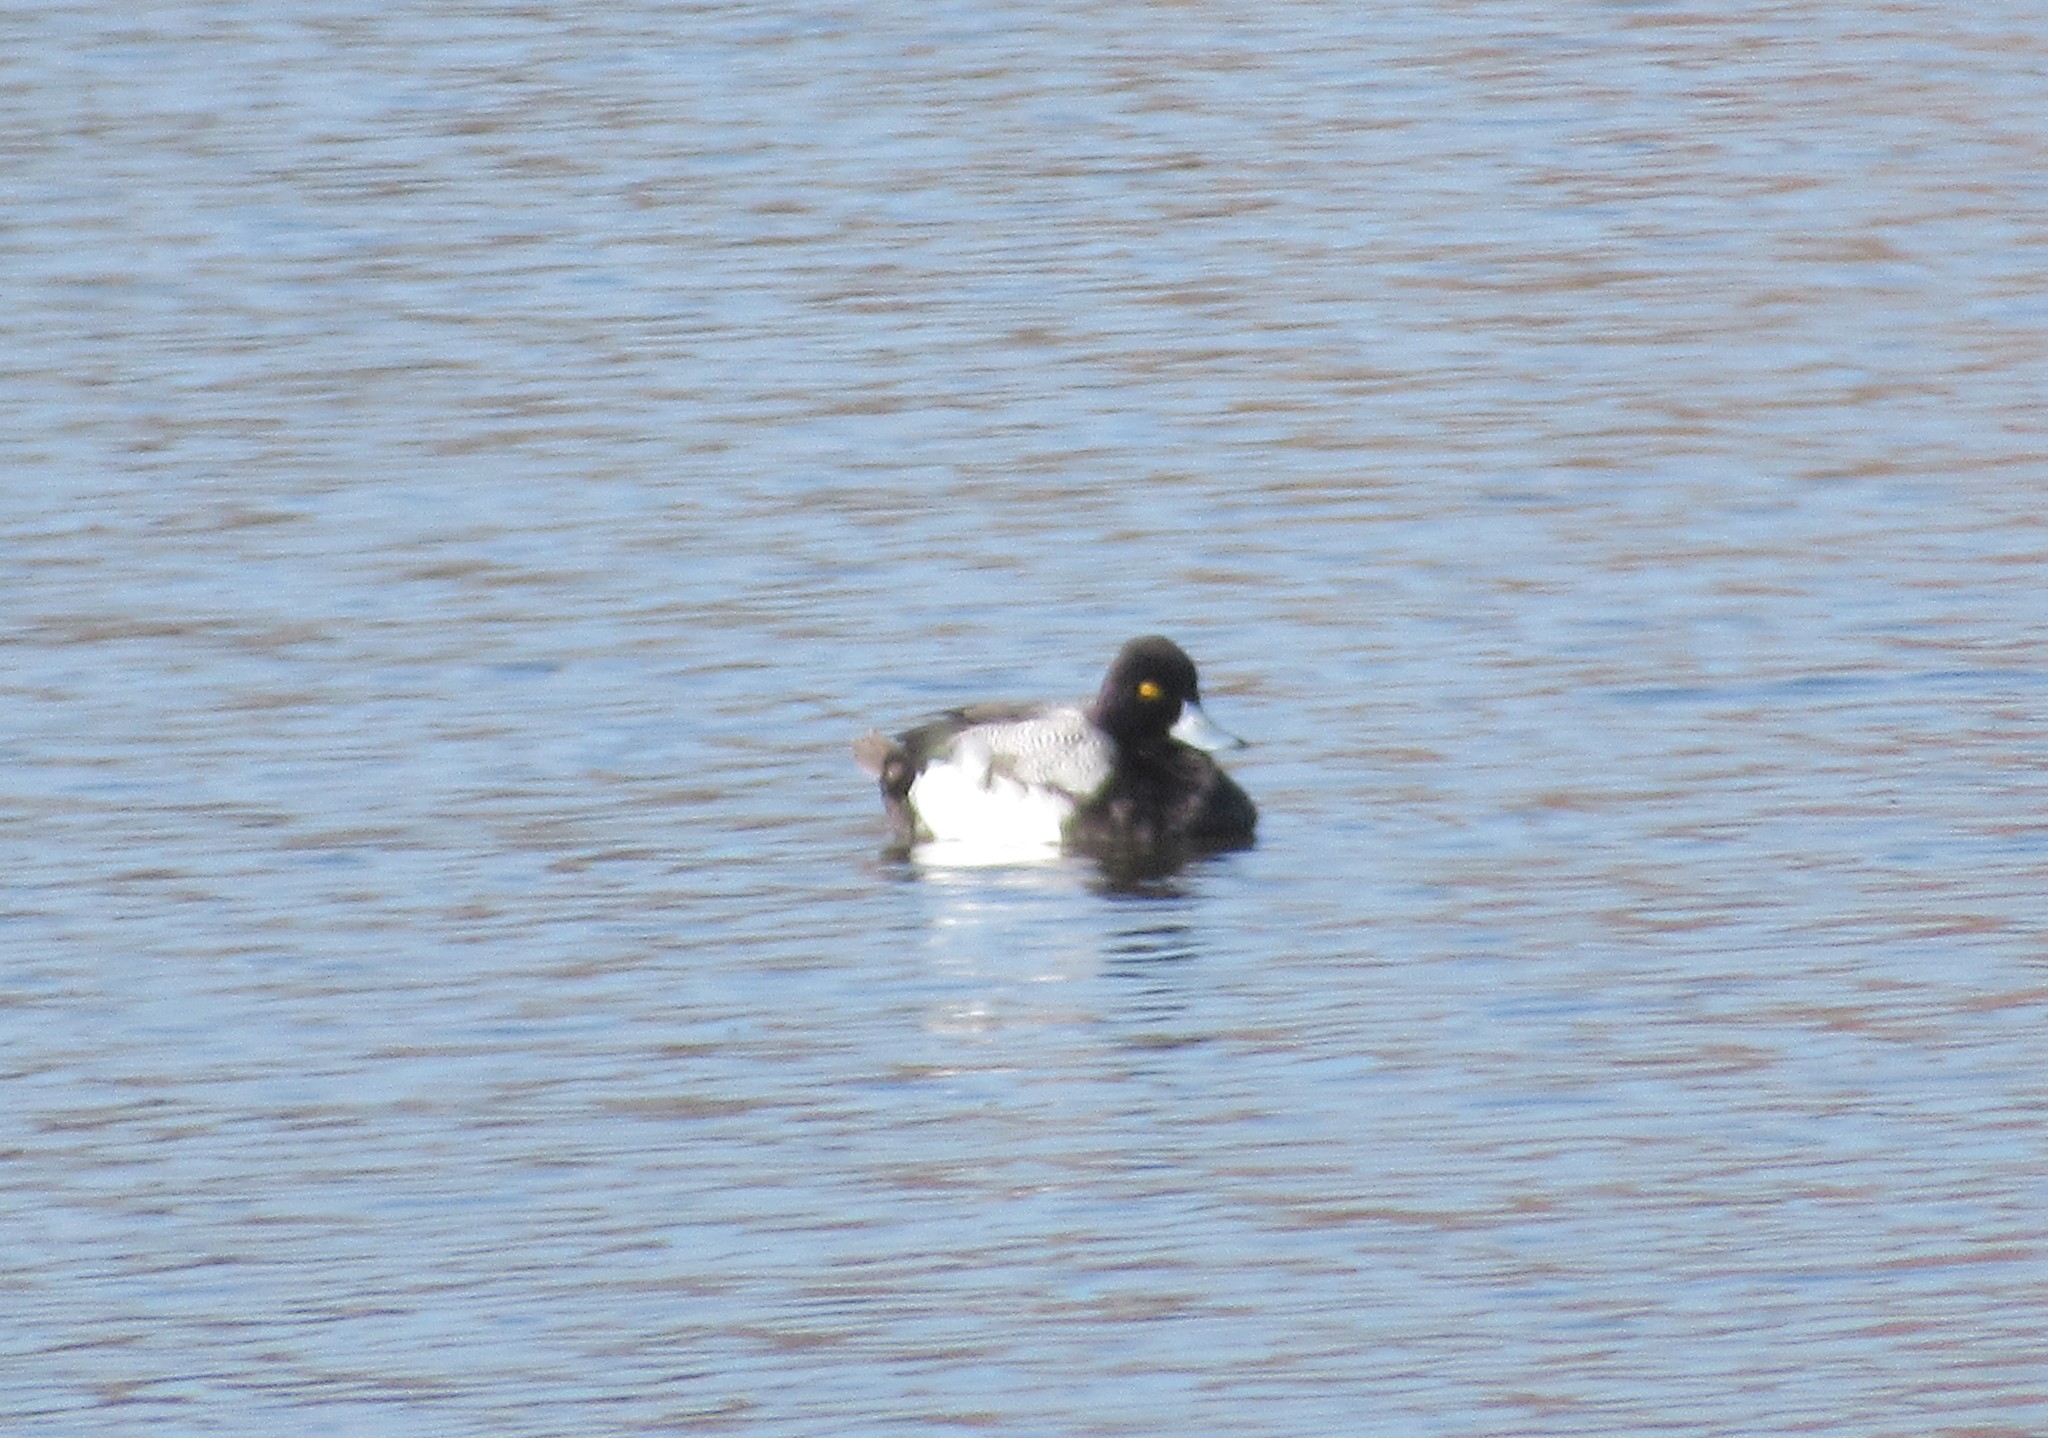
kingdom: Animalia
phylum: Chordata
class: Aves
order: Anseriformes
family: Anatidae
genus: Aythya
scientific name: Aythya affinis
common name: Lesser scaup
